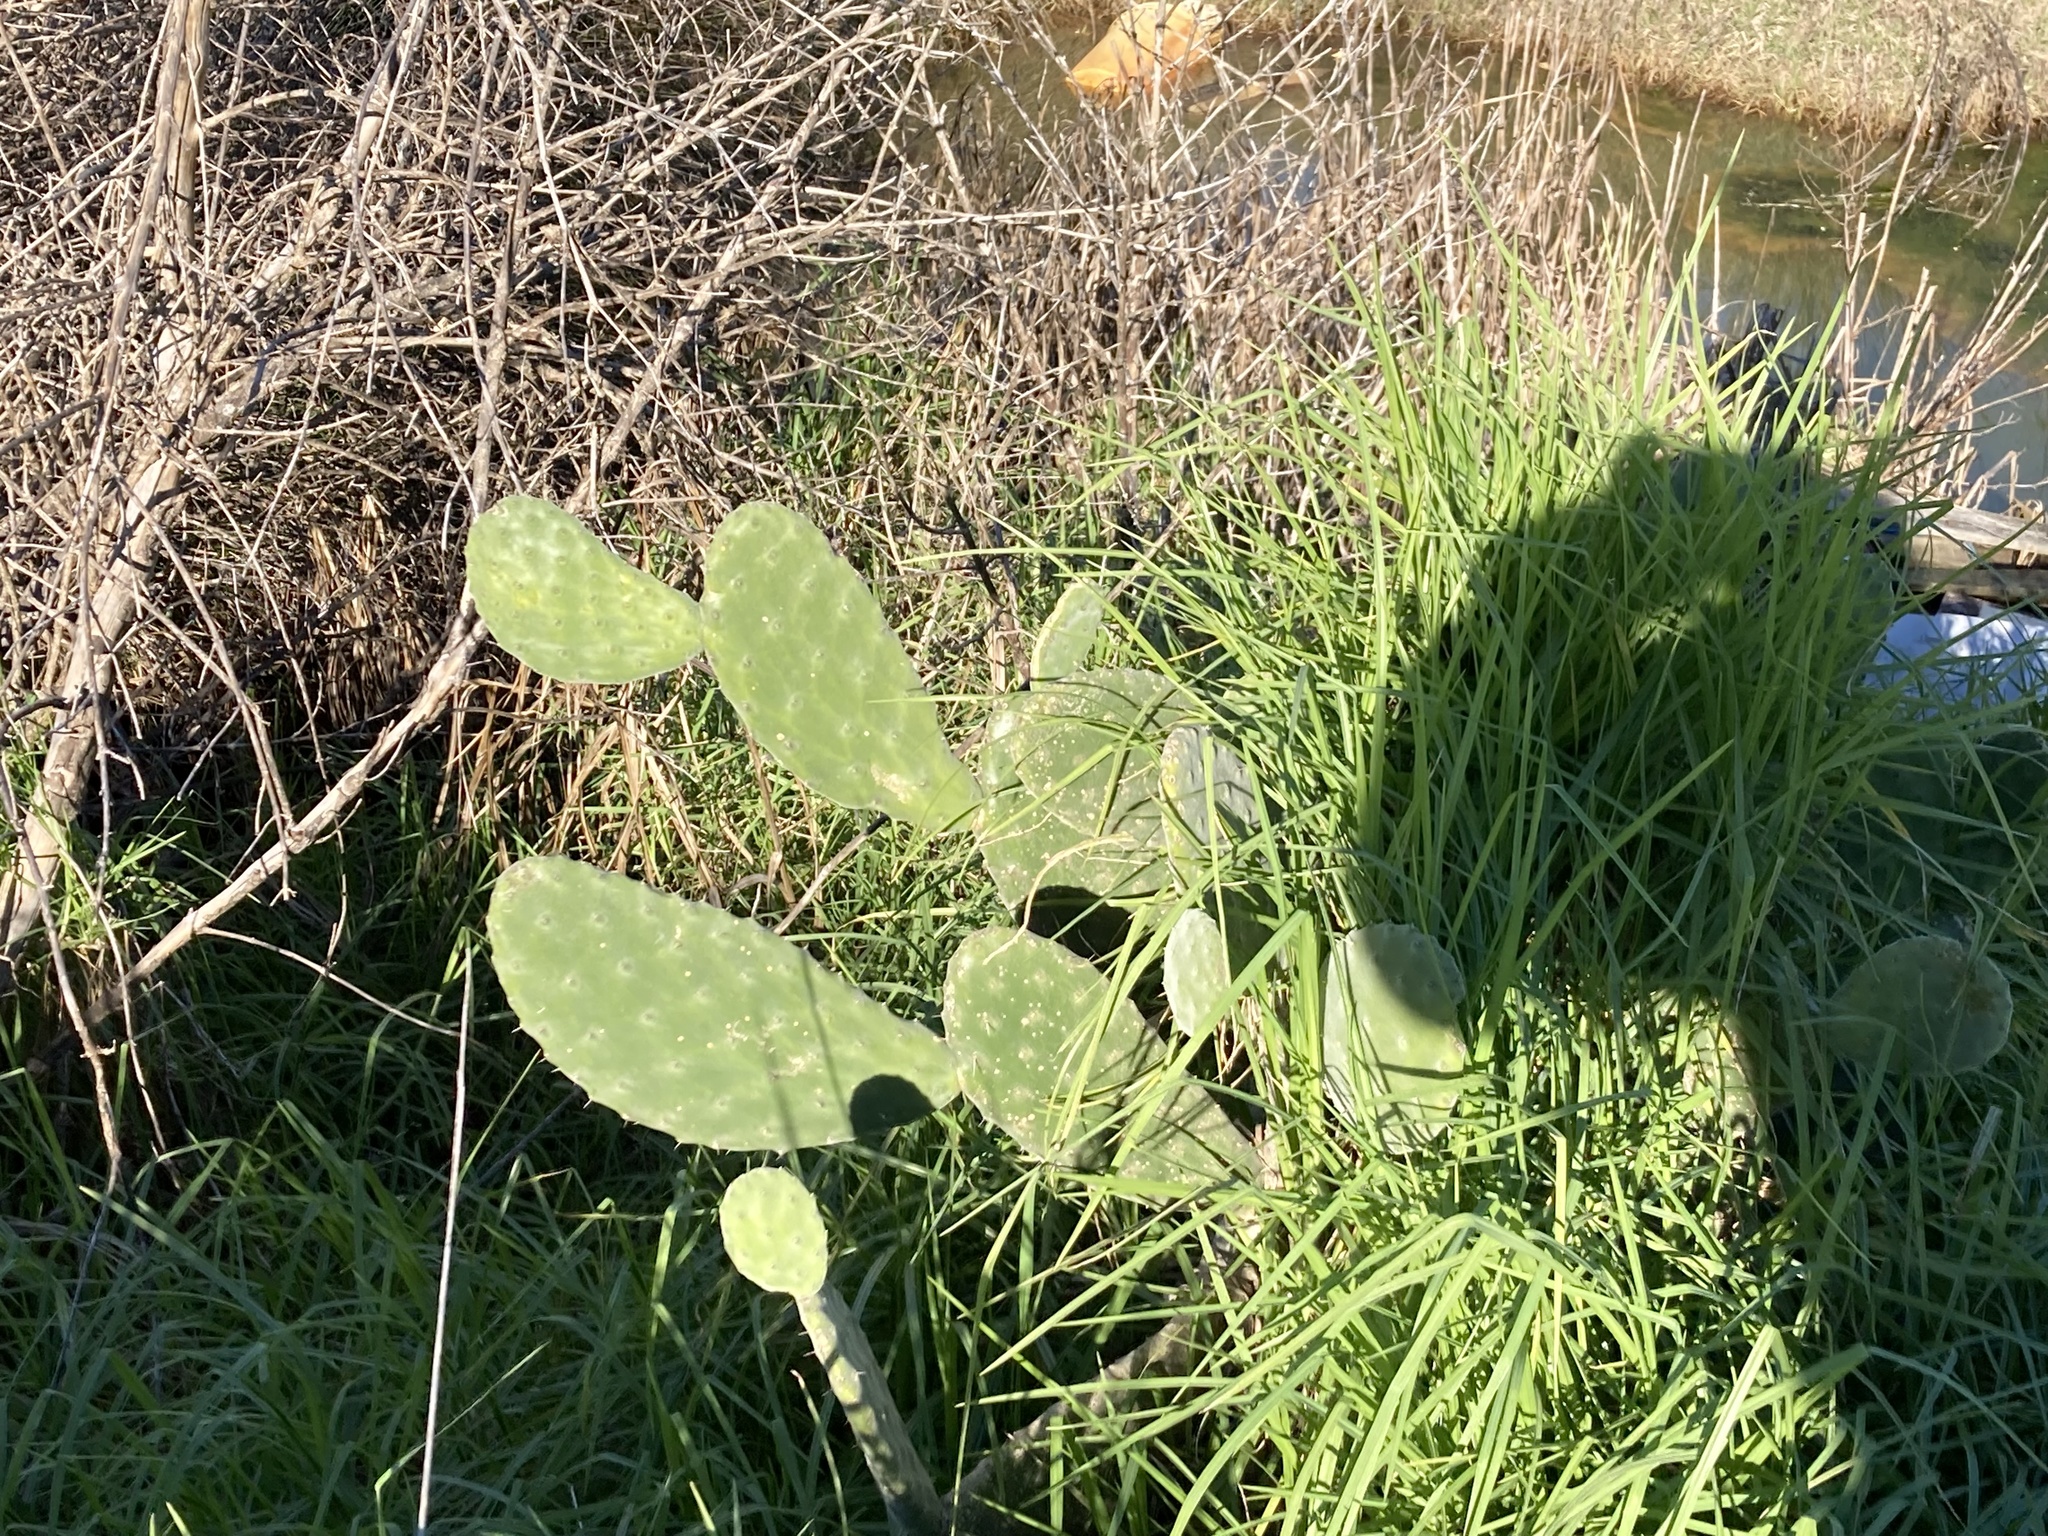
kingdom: Plantae
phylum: Tracheophyta
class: Magnoliopsida
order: Caryophyllales
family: Cactaceae
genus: Opuntia
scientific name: Opuntia tomentosa
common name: Woollyjoint pricklypear
